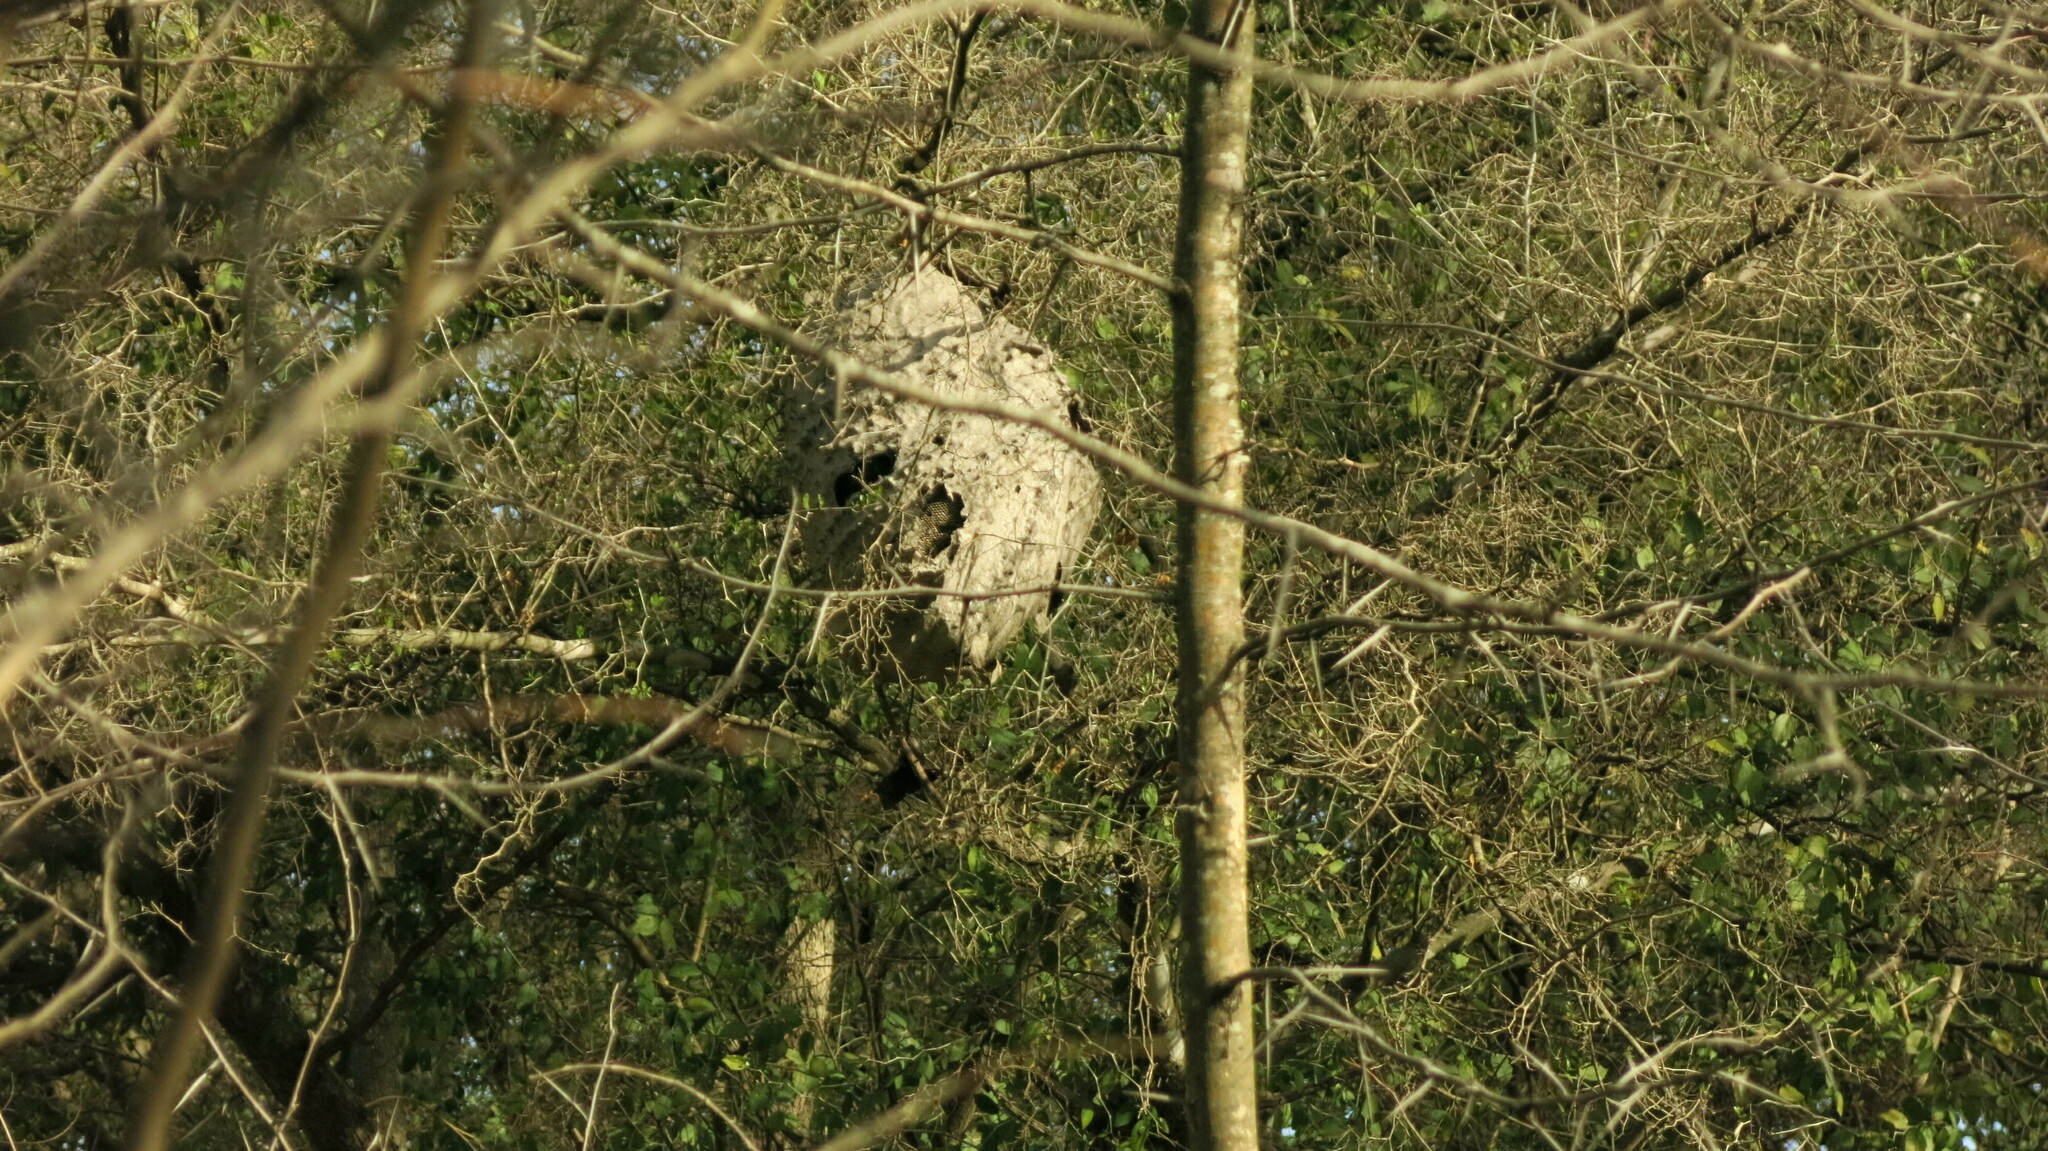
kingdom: Animalia
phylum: Arthropoda
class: Insecta
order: Hymenoptera
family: Eumenidae
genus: Polybia
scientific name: Polybia scutellaris
